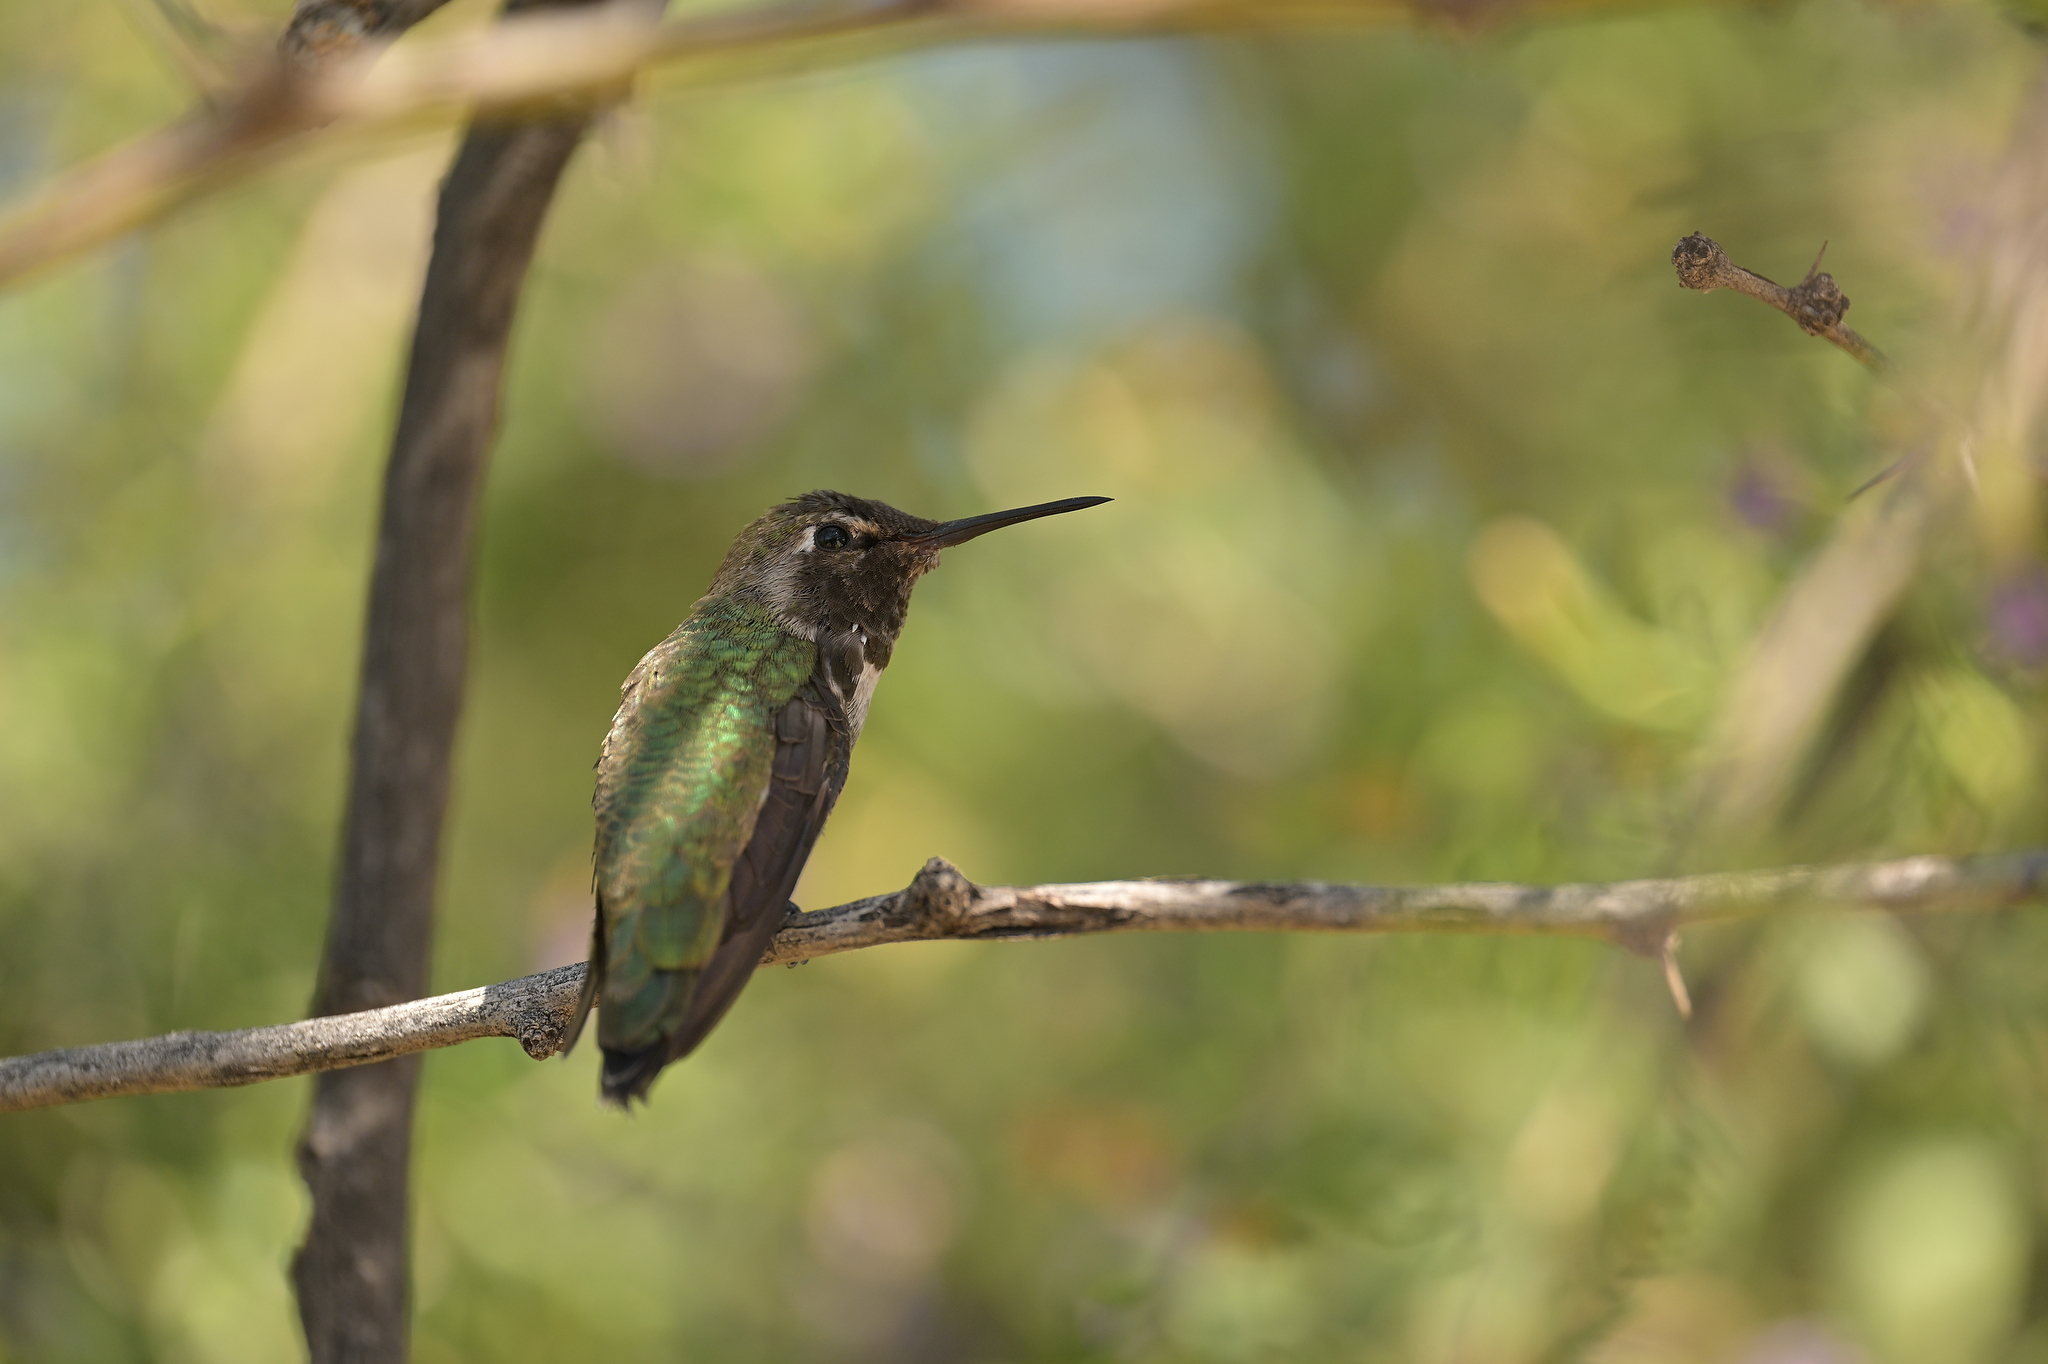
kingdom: Animalia
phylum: Chordata
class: Aves
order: Apodiformes
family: Trochilidae
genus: Calypte
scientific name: Calypte anna
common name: Anna's hummingbird
